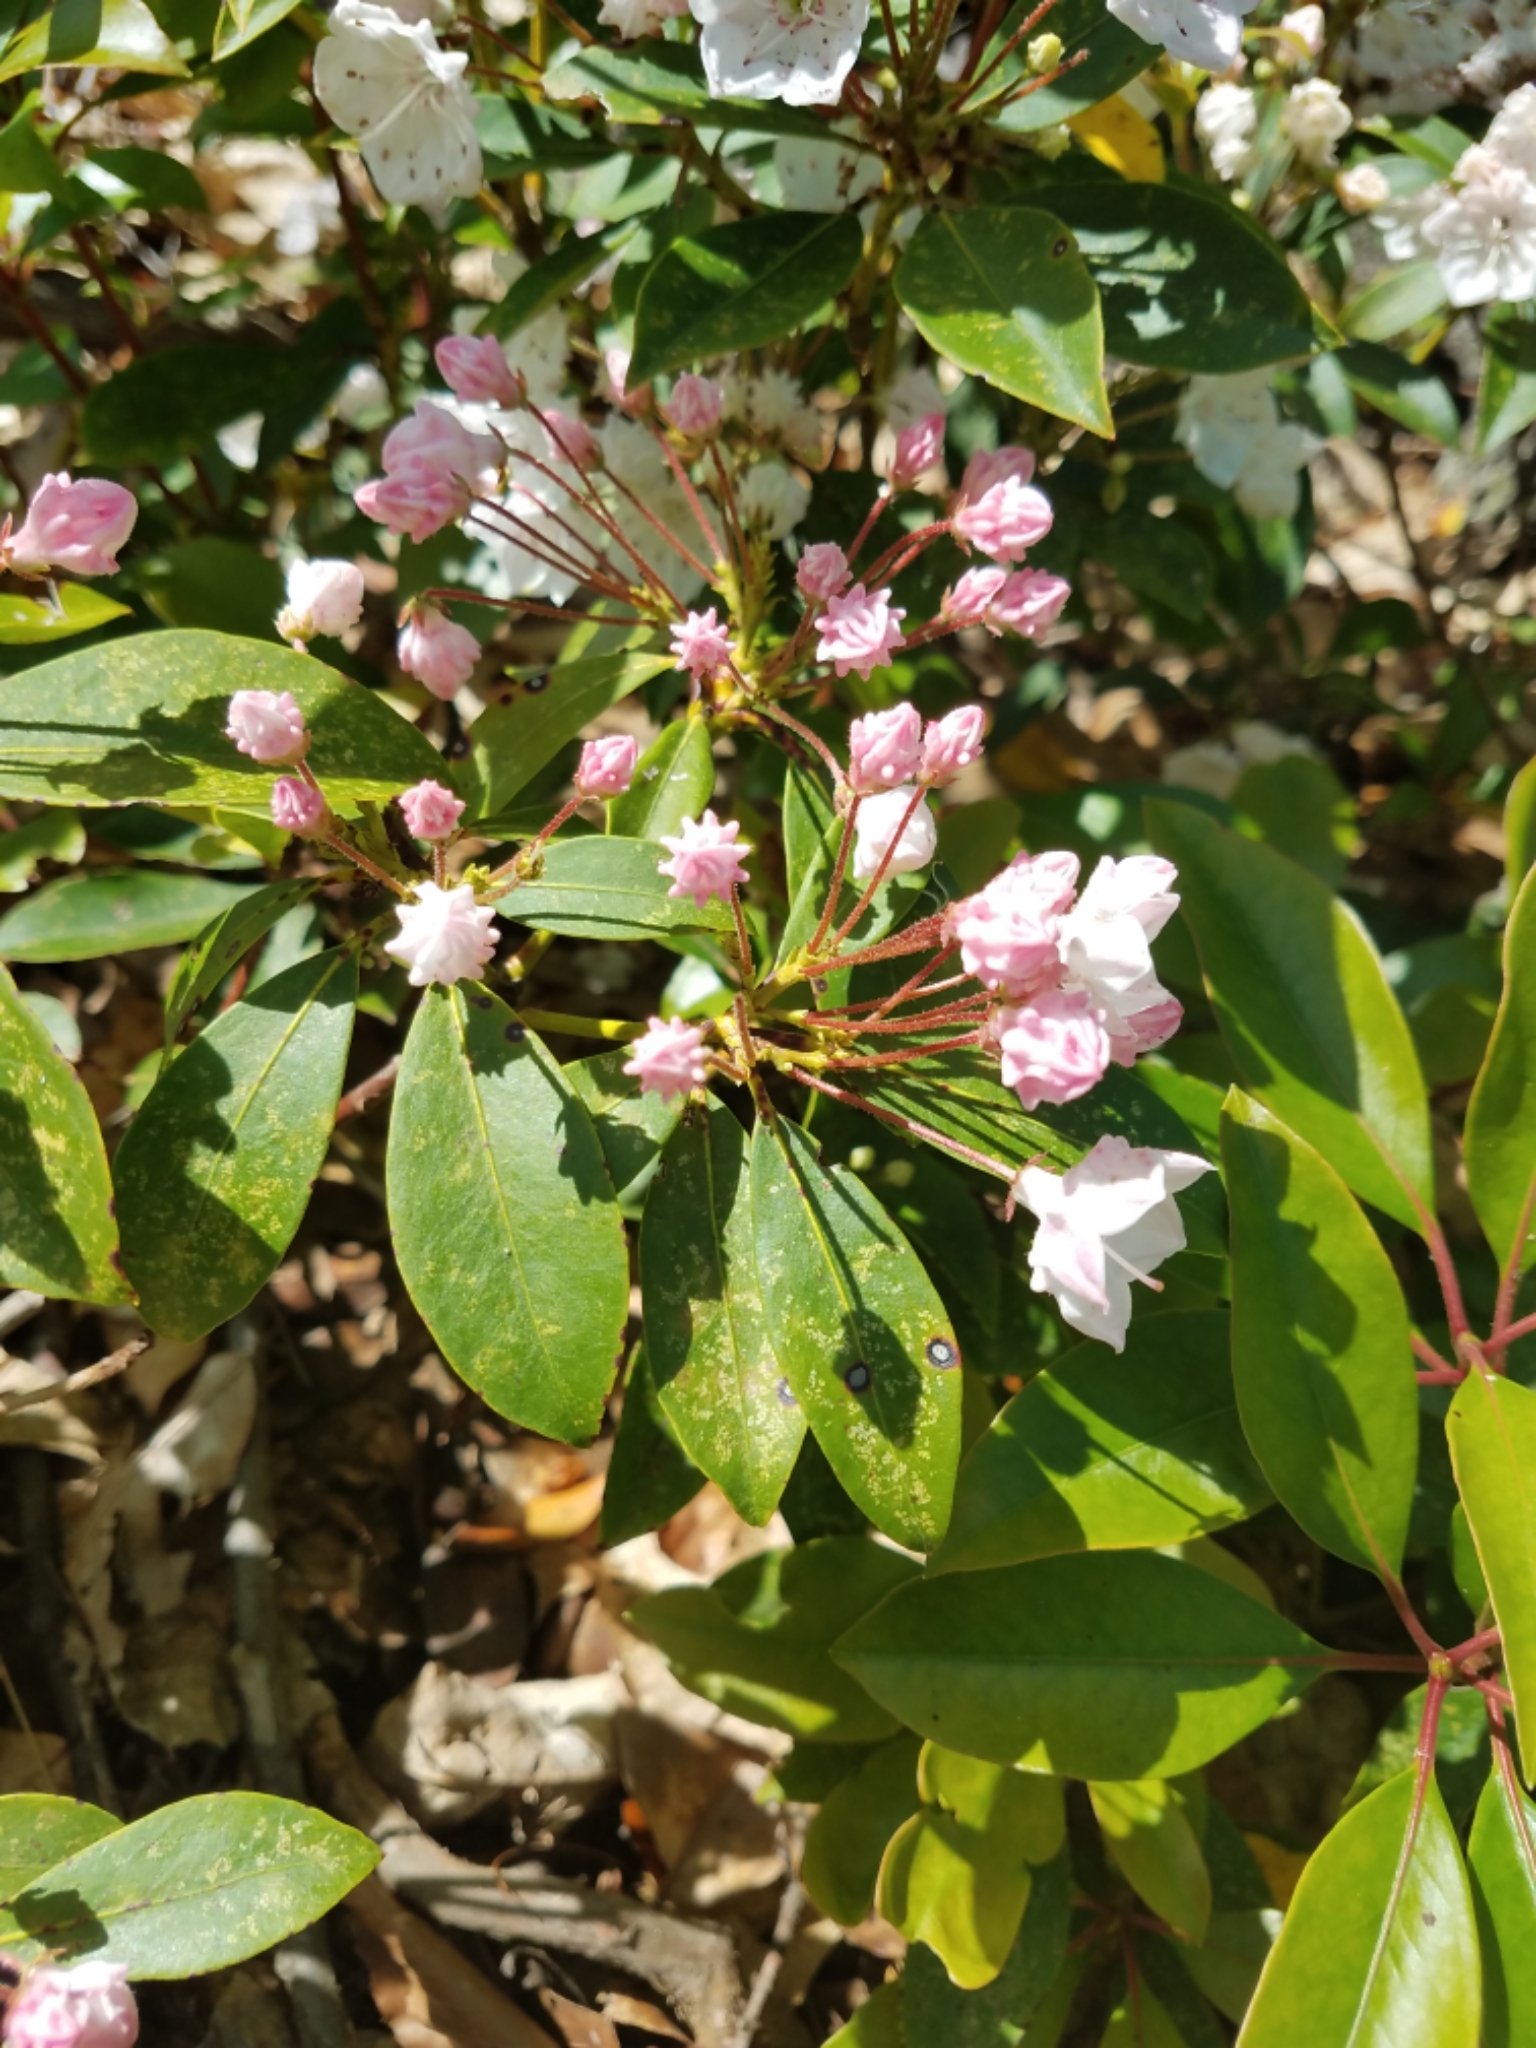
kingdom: Plantae
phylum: Tracheophyta
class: Magnoliopsida
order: Ericales
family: Ericaceae
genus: Kalmia
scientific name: Kalmia latifolia
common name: Mountain-laurel
